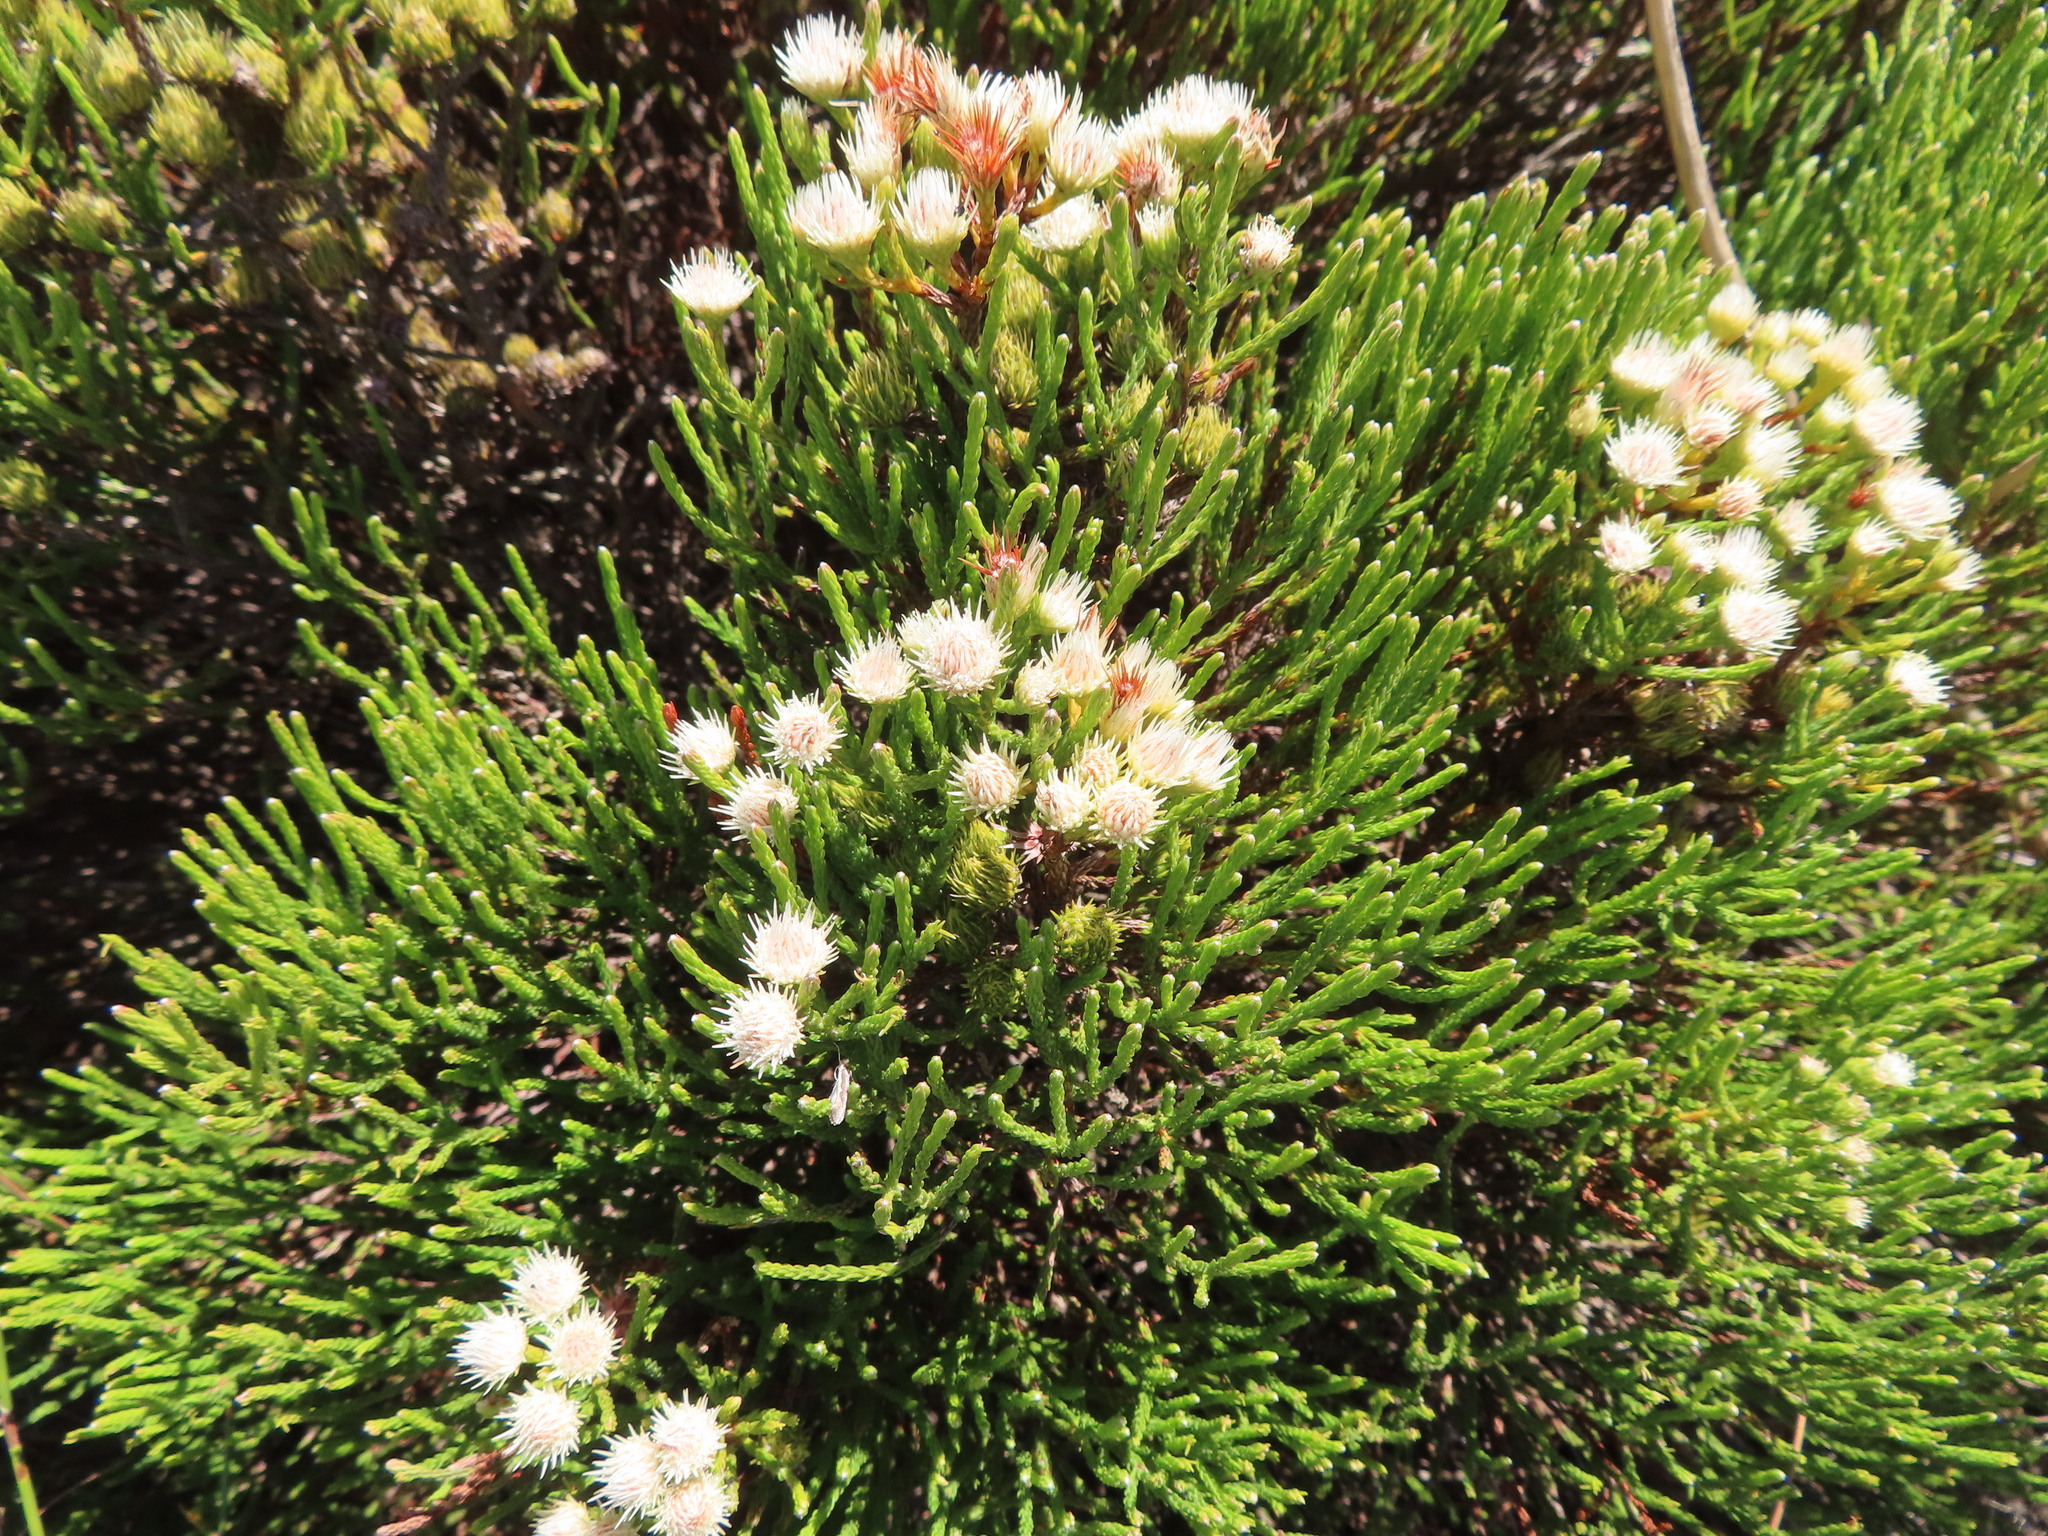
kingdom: Plantae
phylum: Tracheophyta
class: Magnoliopsida
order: Bruniales
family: Bruniaceae
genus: Brunia
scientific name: Brunia paleacea
